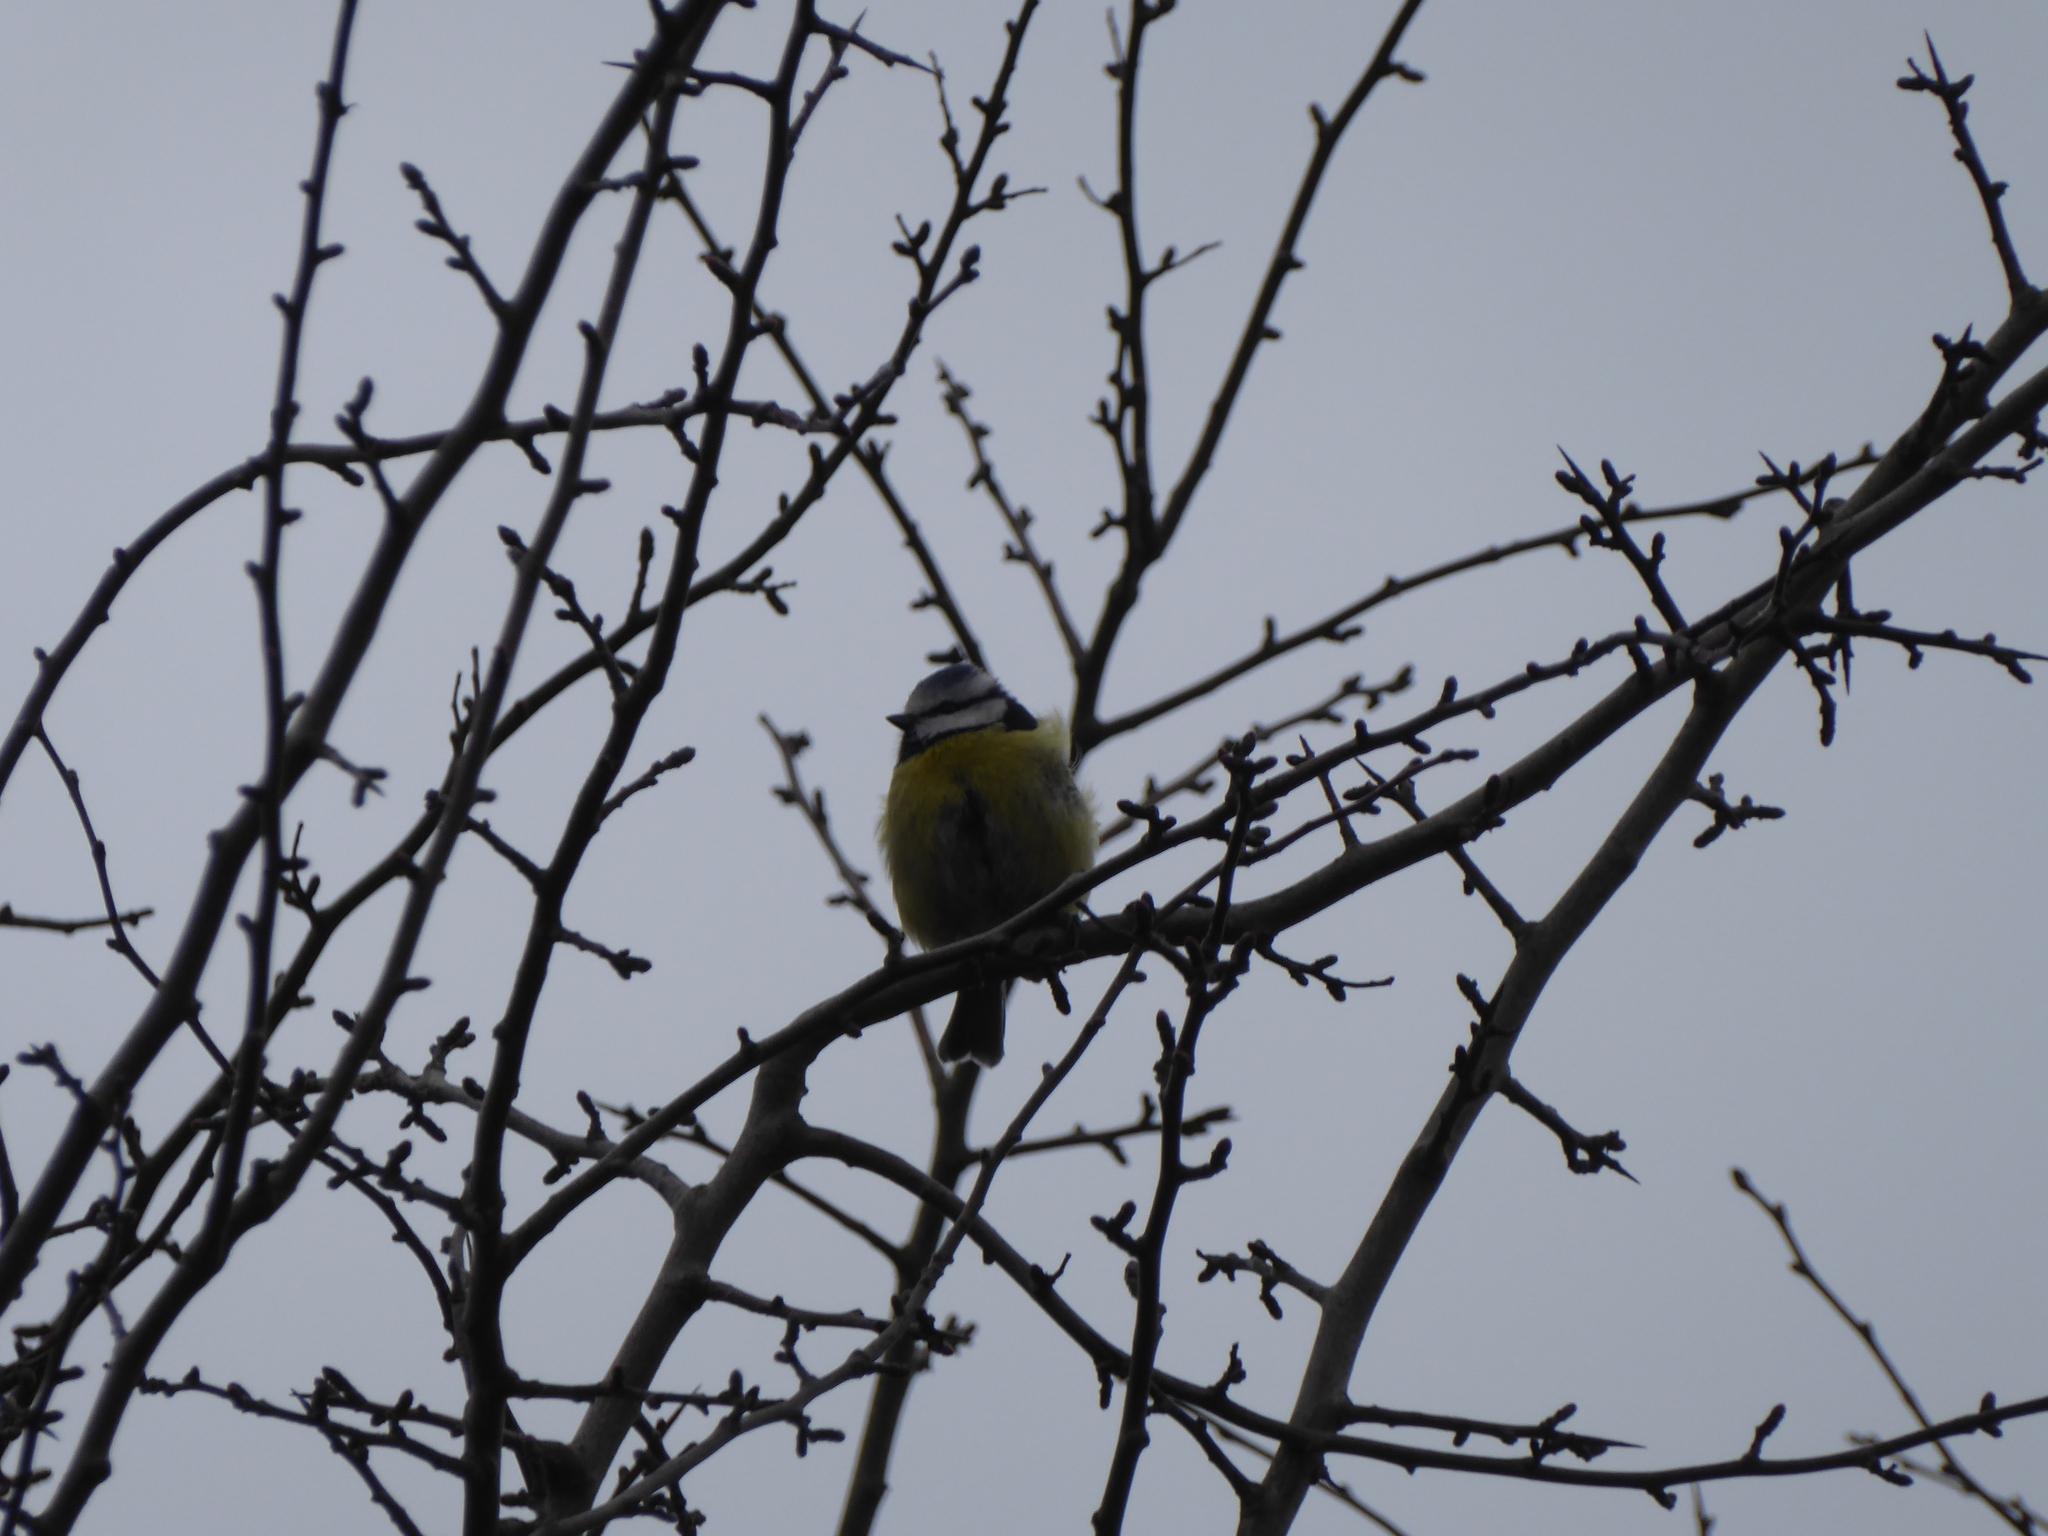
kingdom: Animalia
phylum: Chordata
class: Aves
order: Passeriformes
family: Paridae
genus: Cyanistes
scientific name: Cyanistes caeruleus
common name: Eurasian blue tit
